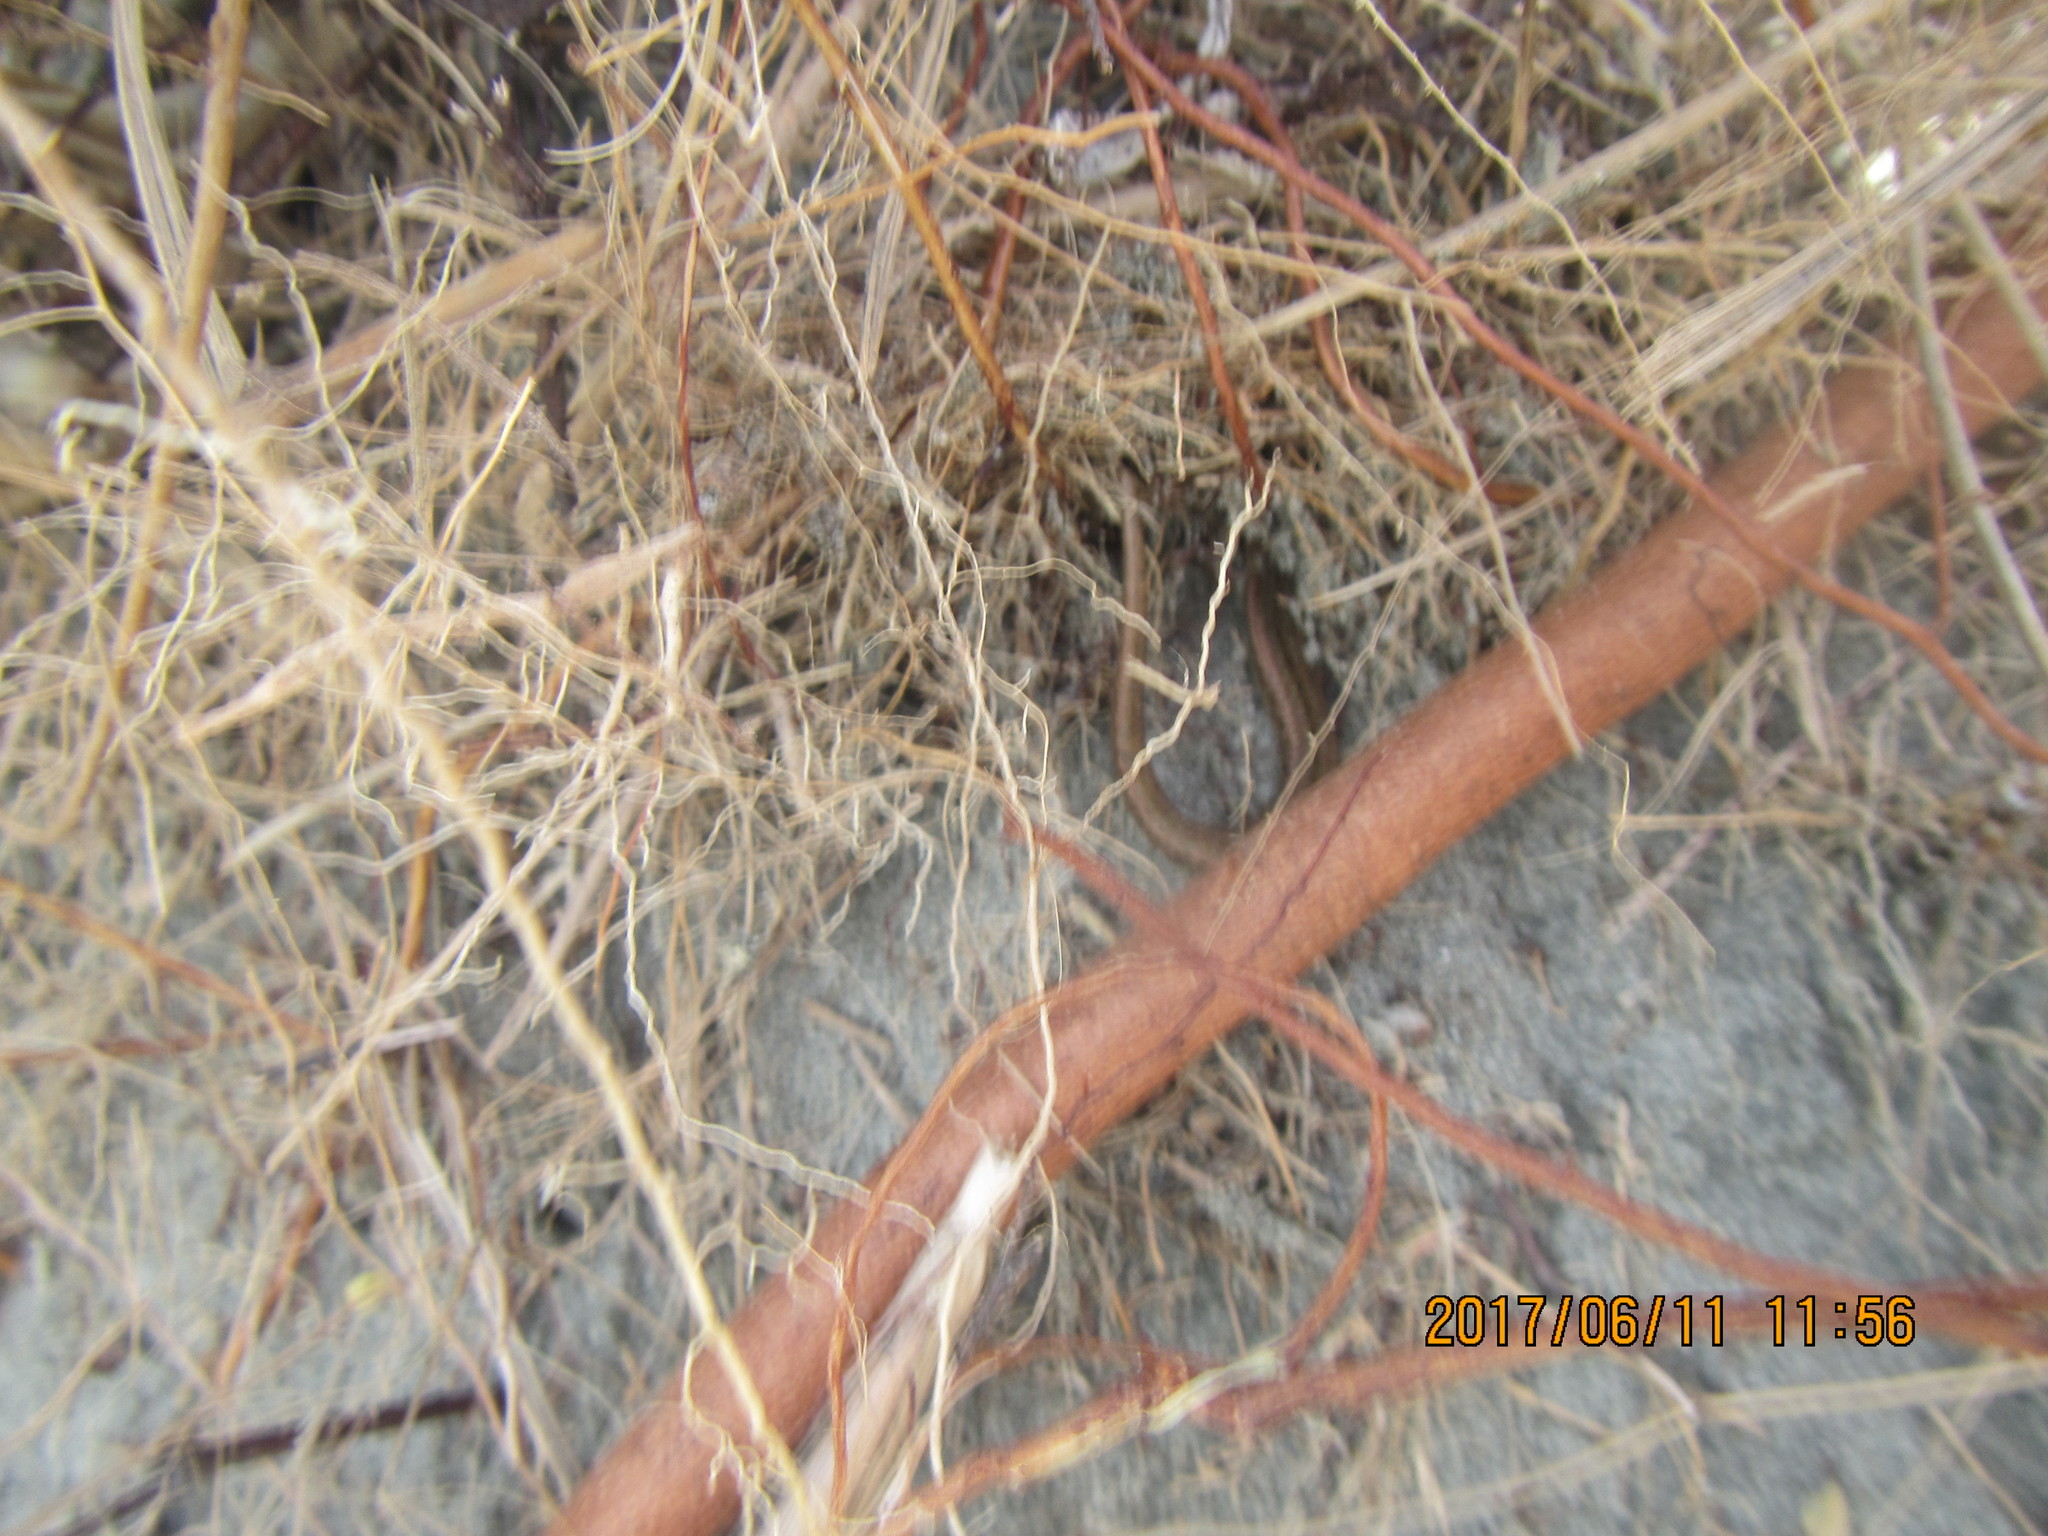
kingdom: Animalia
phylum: Chordata
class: Squamata
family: Scincidae
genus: Oligosoma
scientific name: Oligosoma polychroma
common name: Common new zealand skink
